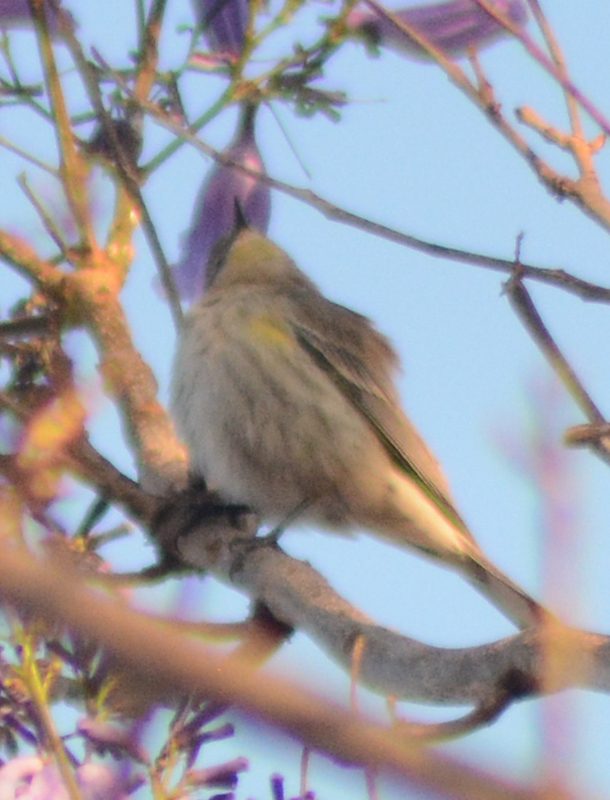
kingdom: Animalia
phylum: Chordata
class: Aves
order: Passeriformes
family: Parulidae
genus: Setophaga
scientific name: Setophaga coronata
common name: Myrtle warbler
